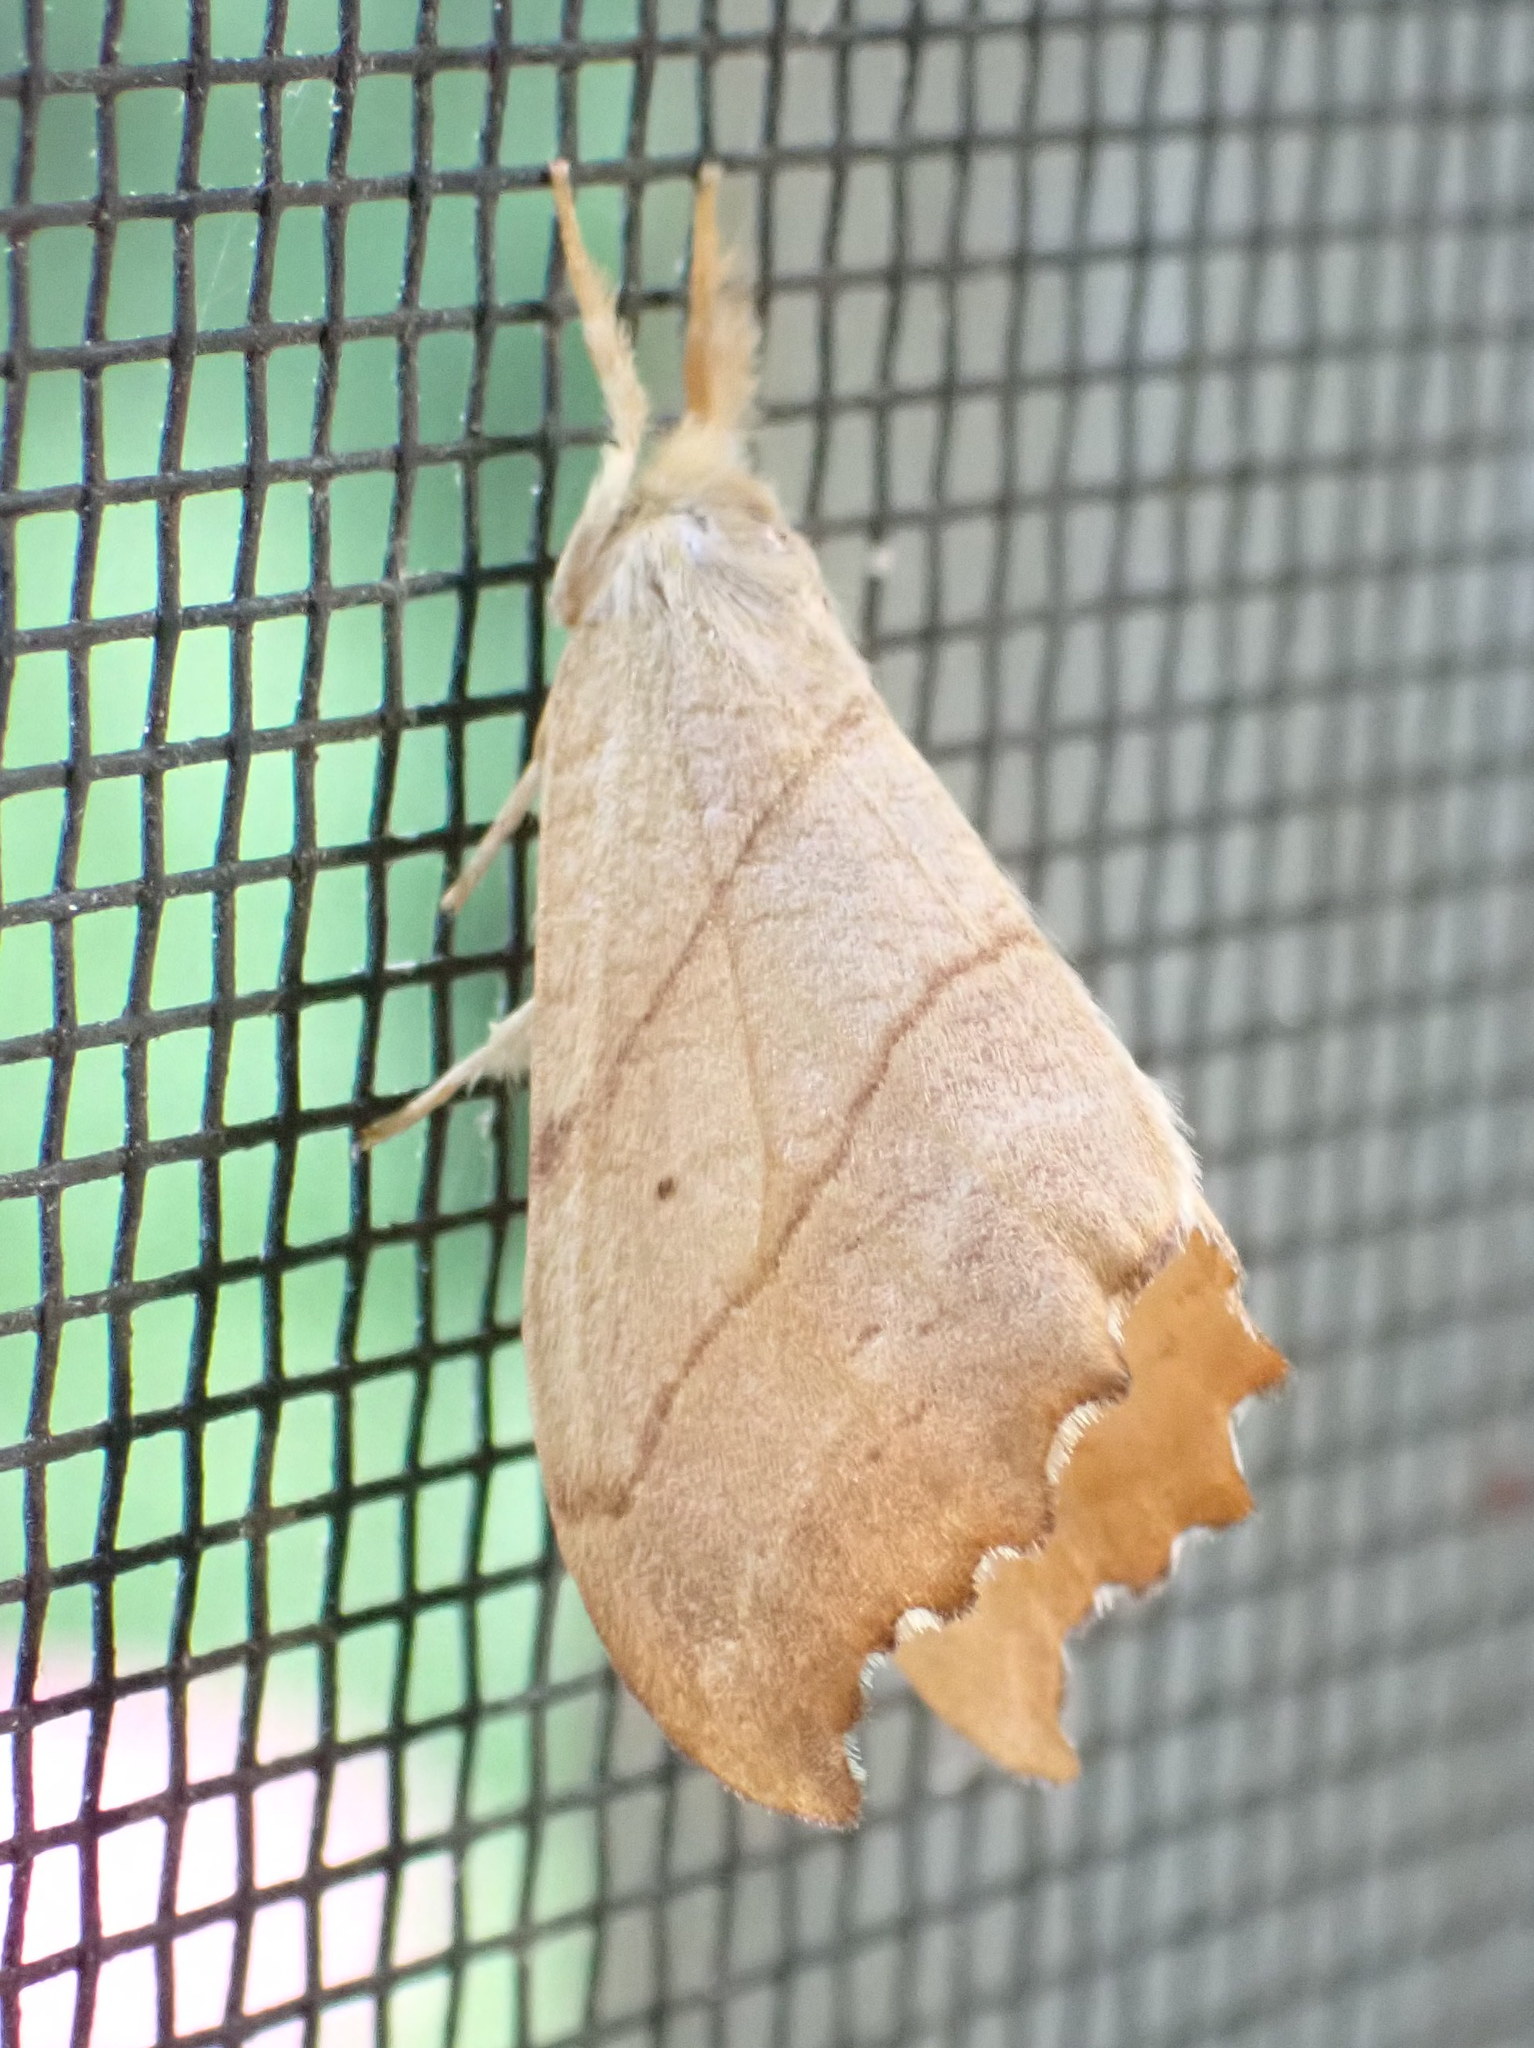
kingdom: Animalia
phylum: Arthropoda
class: Insecta
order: Lepidoptera
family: Drepanidae
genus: Falcaria
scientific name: Falcaria bilineata
